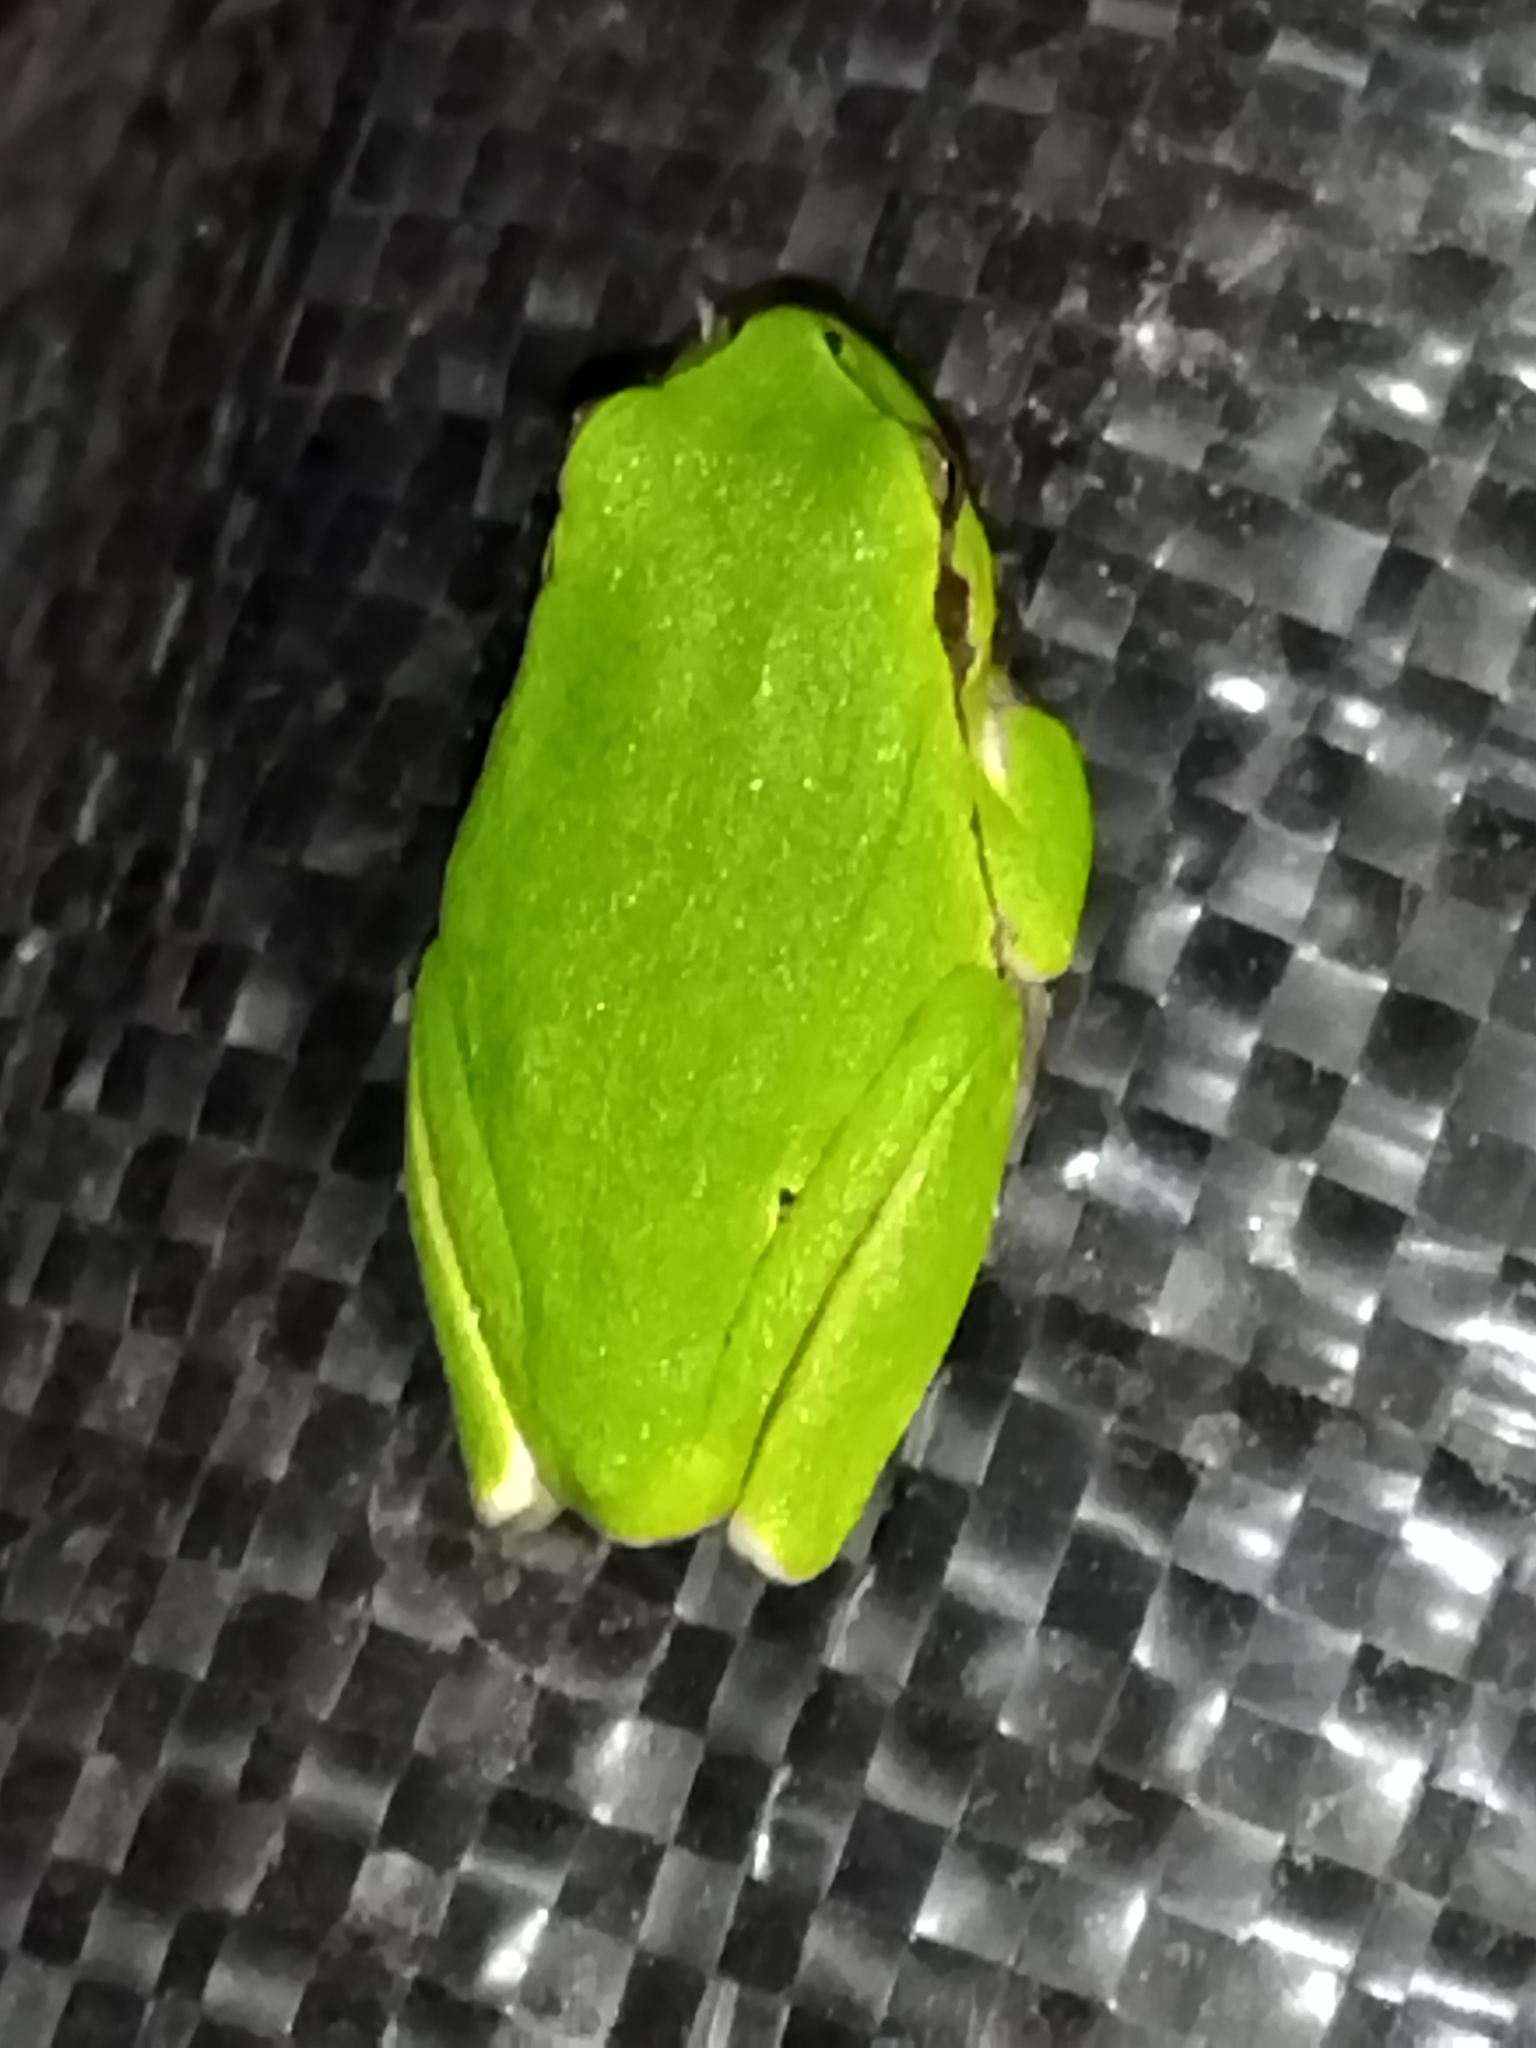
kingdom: Animalia
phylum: Chordata
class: Amphibia
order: Anura
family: Hylidae
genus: Hyla
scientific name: Hyla orientalis
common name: Caucasian treefrog
